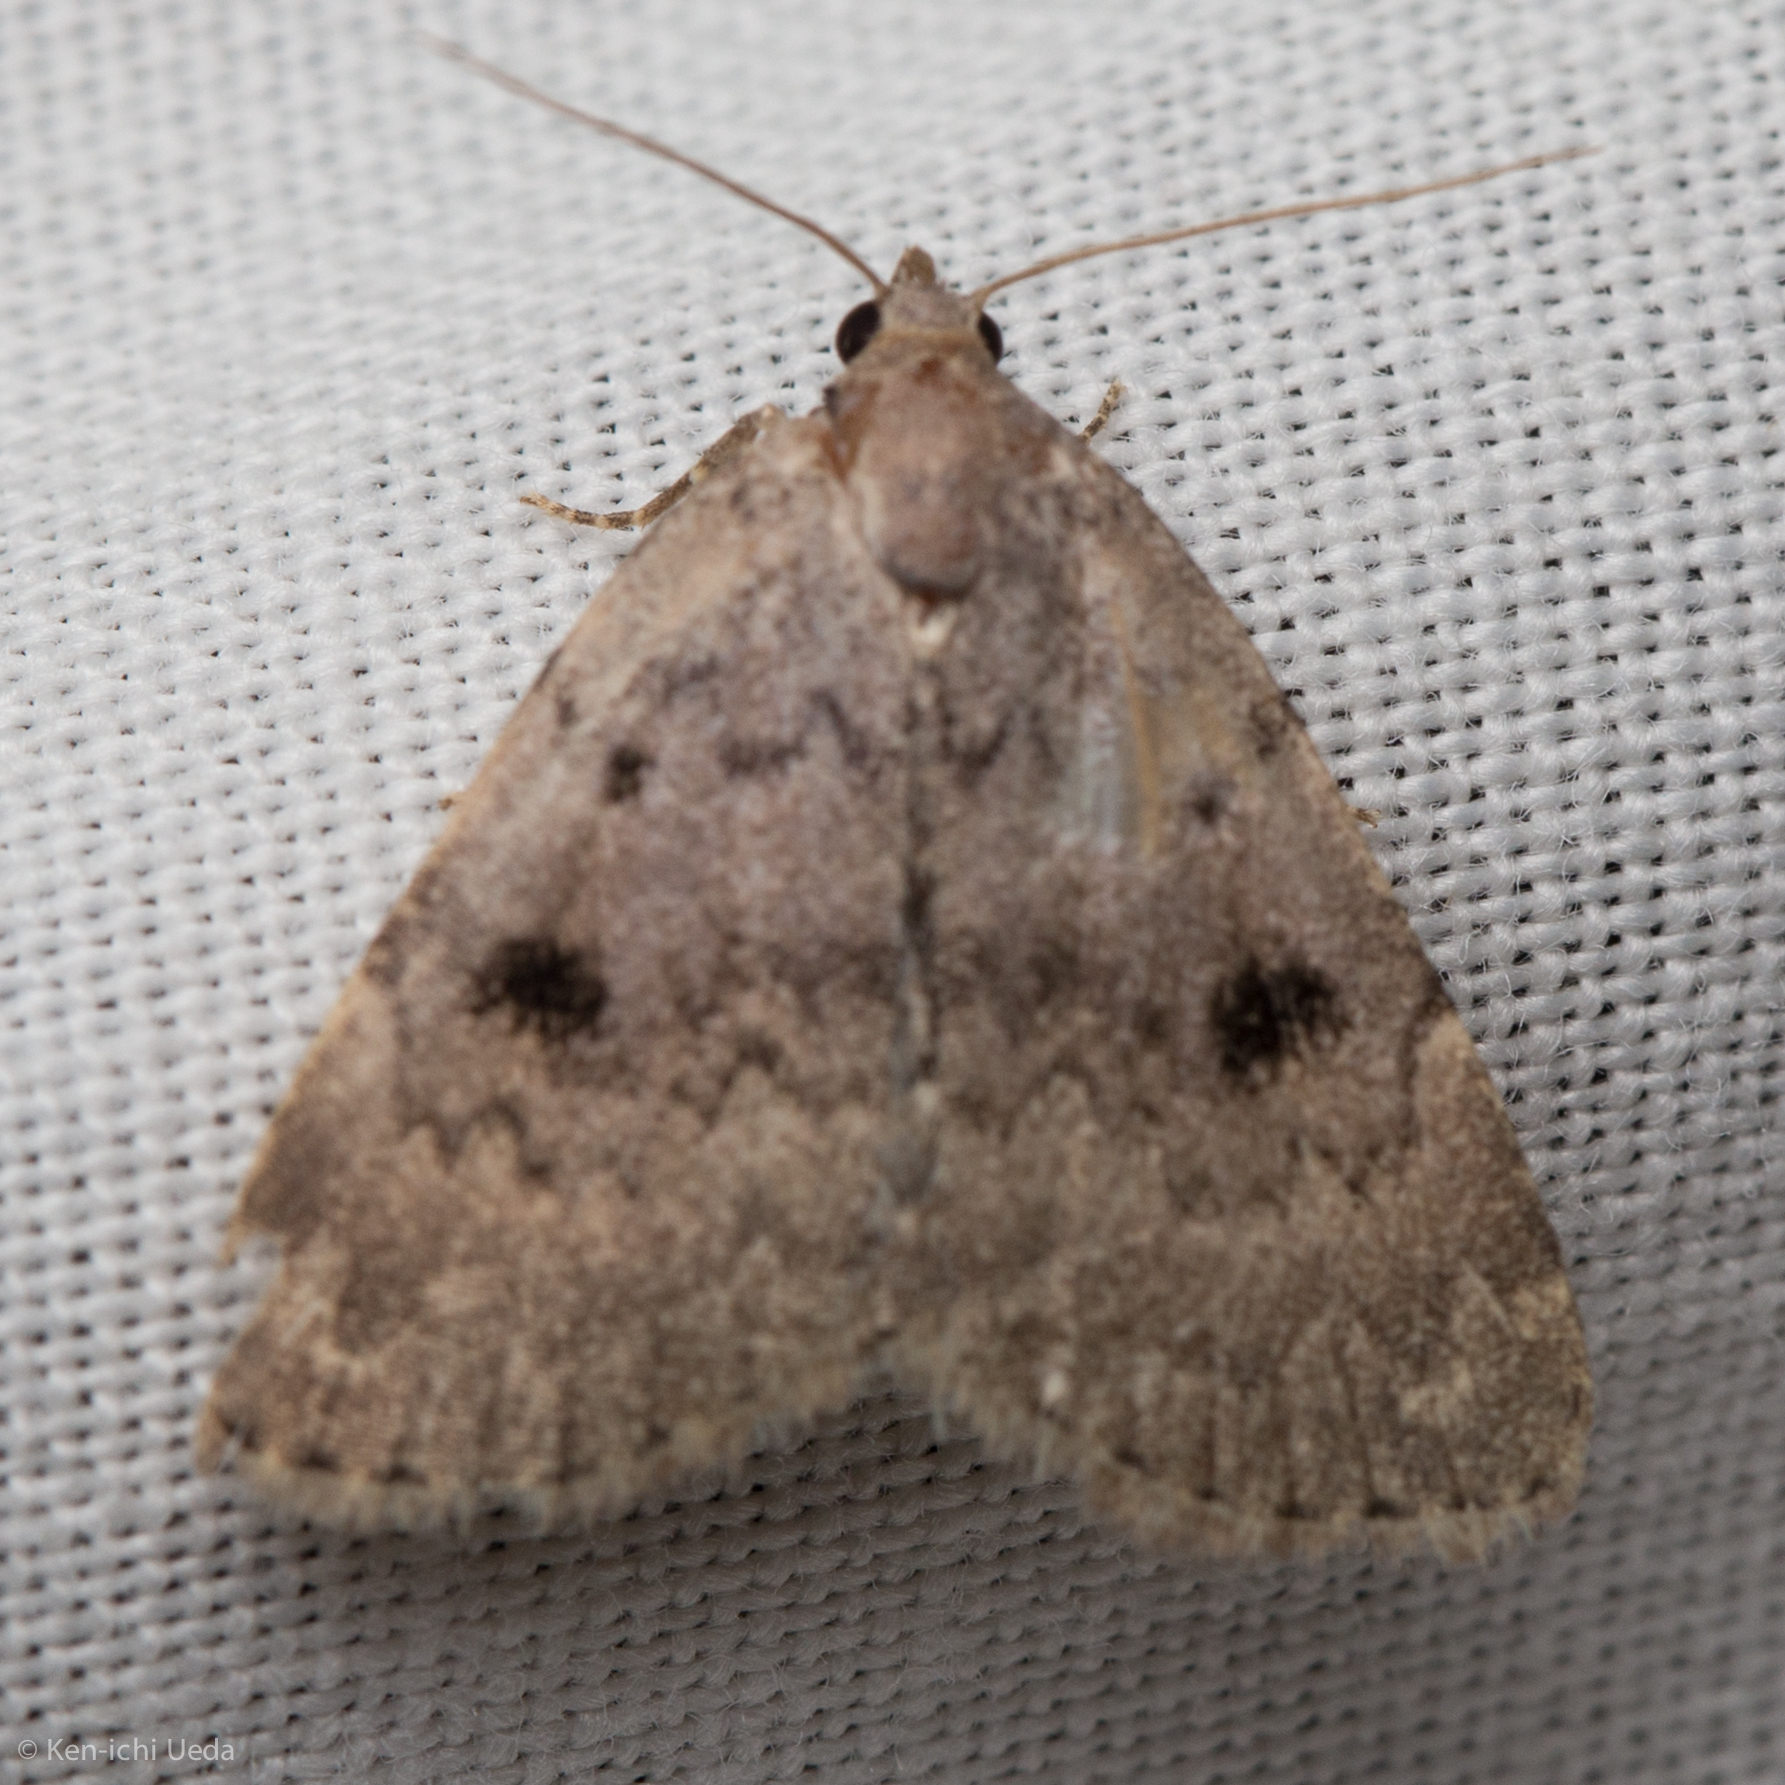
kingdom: Animalia
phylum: Arthropoda
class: Insecta
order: Lepidoptera
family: Erebidae
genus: Idia
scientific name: Idia aemula
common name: Common idia moth
